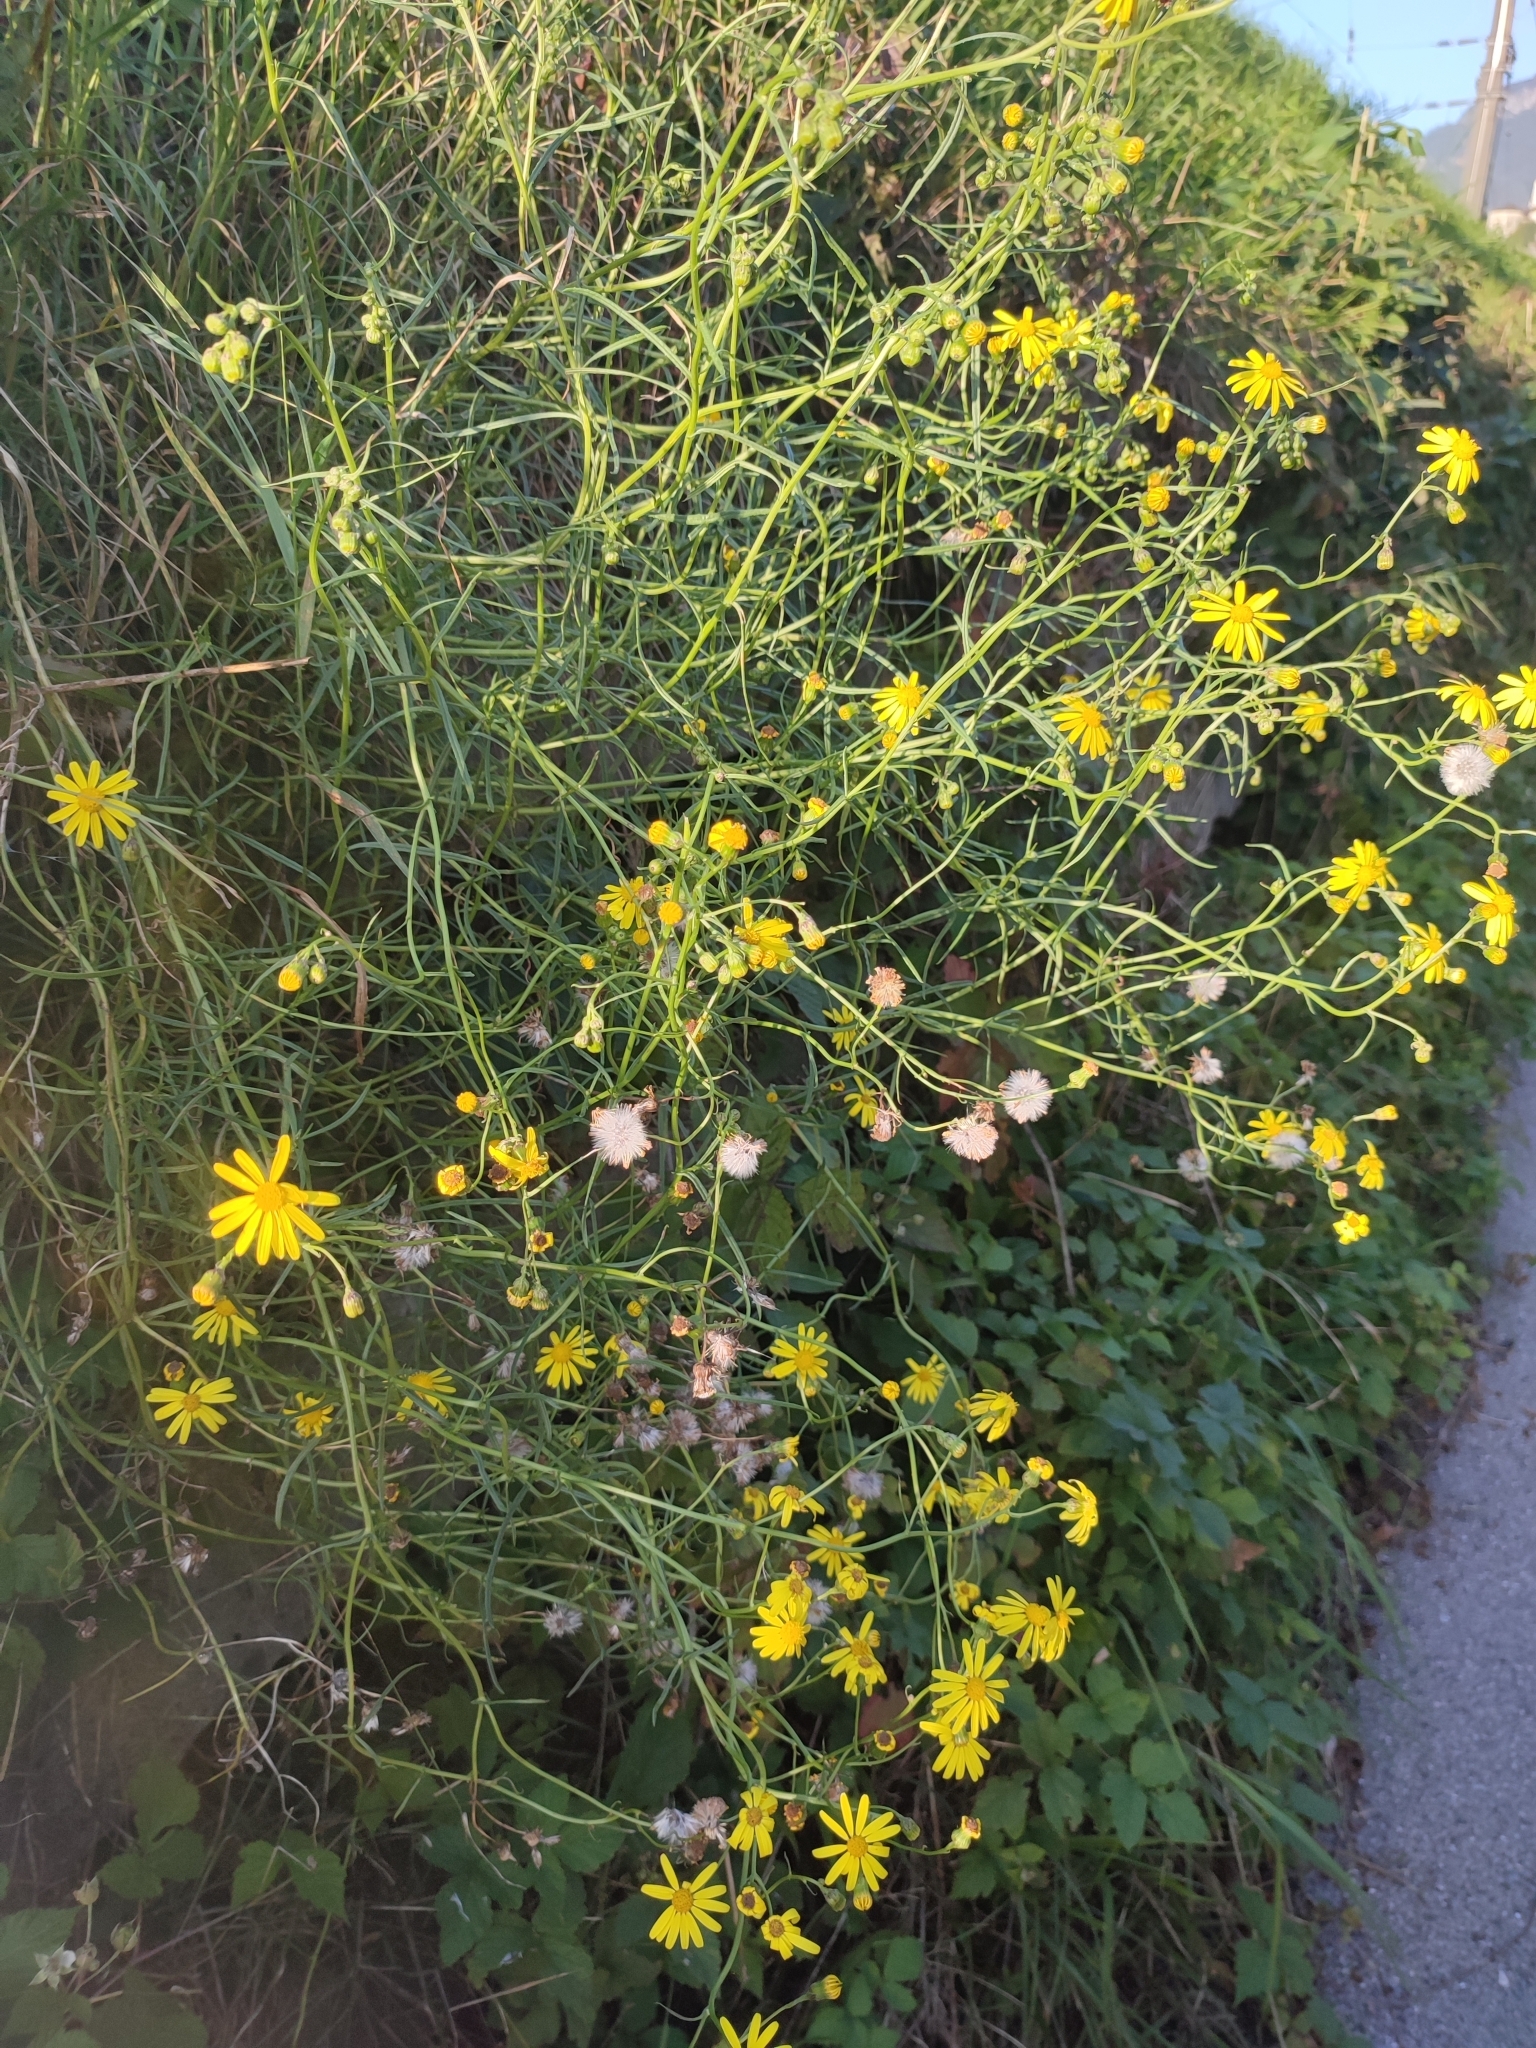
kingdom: Plantae
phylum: Tracheophyta
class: Magnoliopsida
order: Asterales
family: Asteraceae
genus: Senecio
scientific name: Senecio inaequidens
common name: Narrow-leaved ragwort
